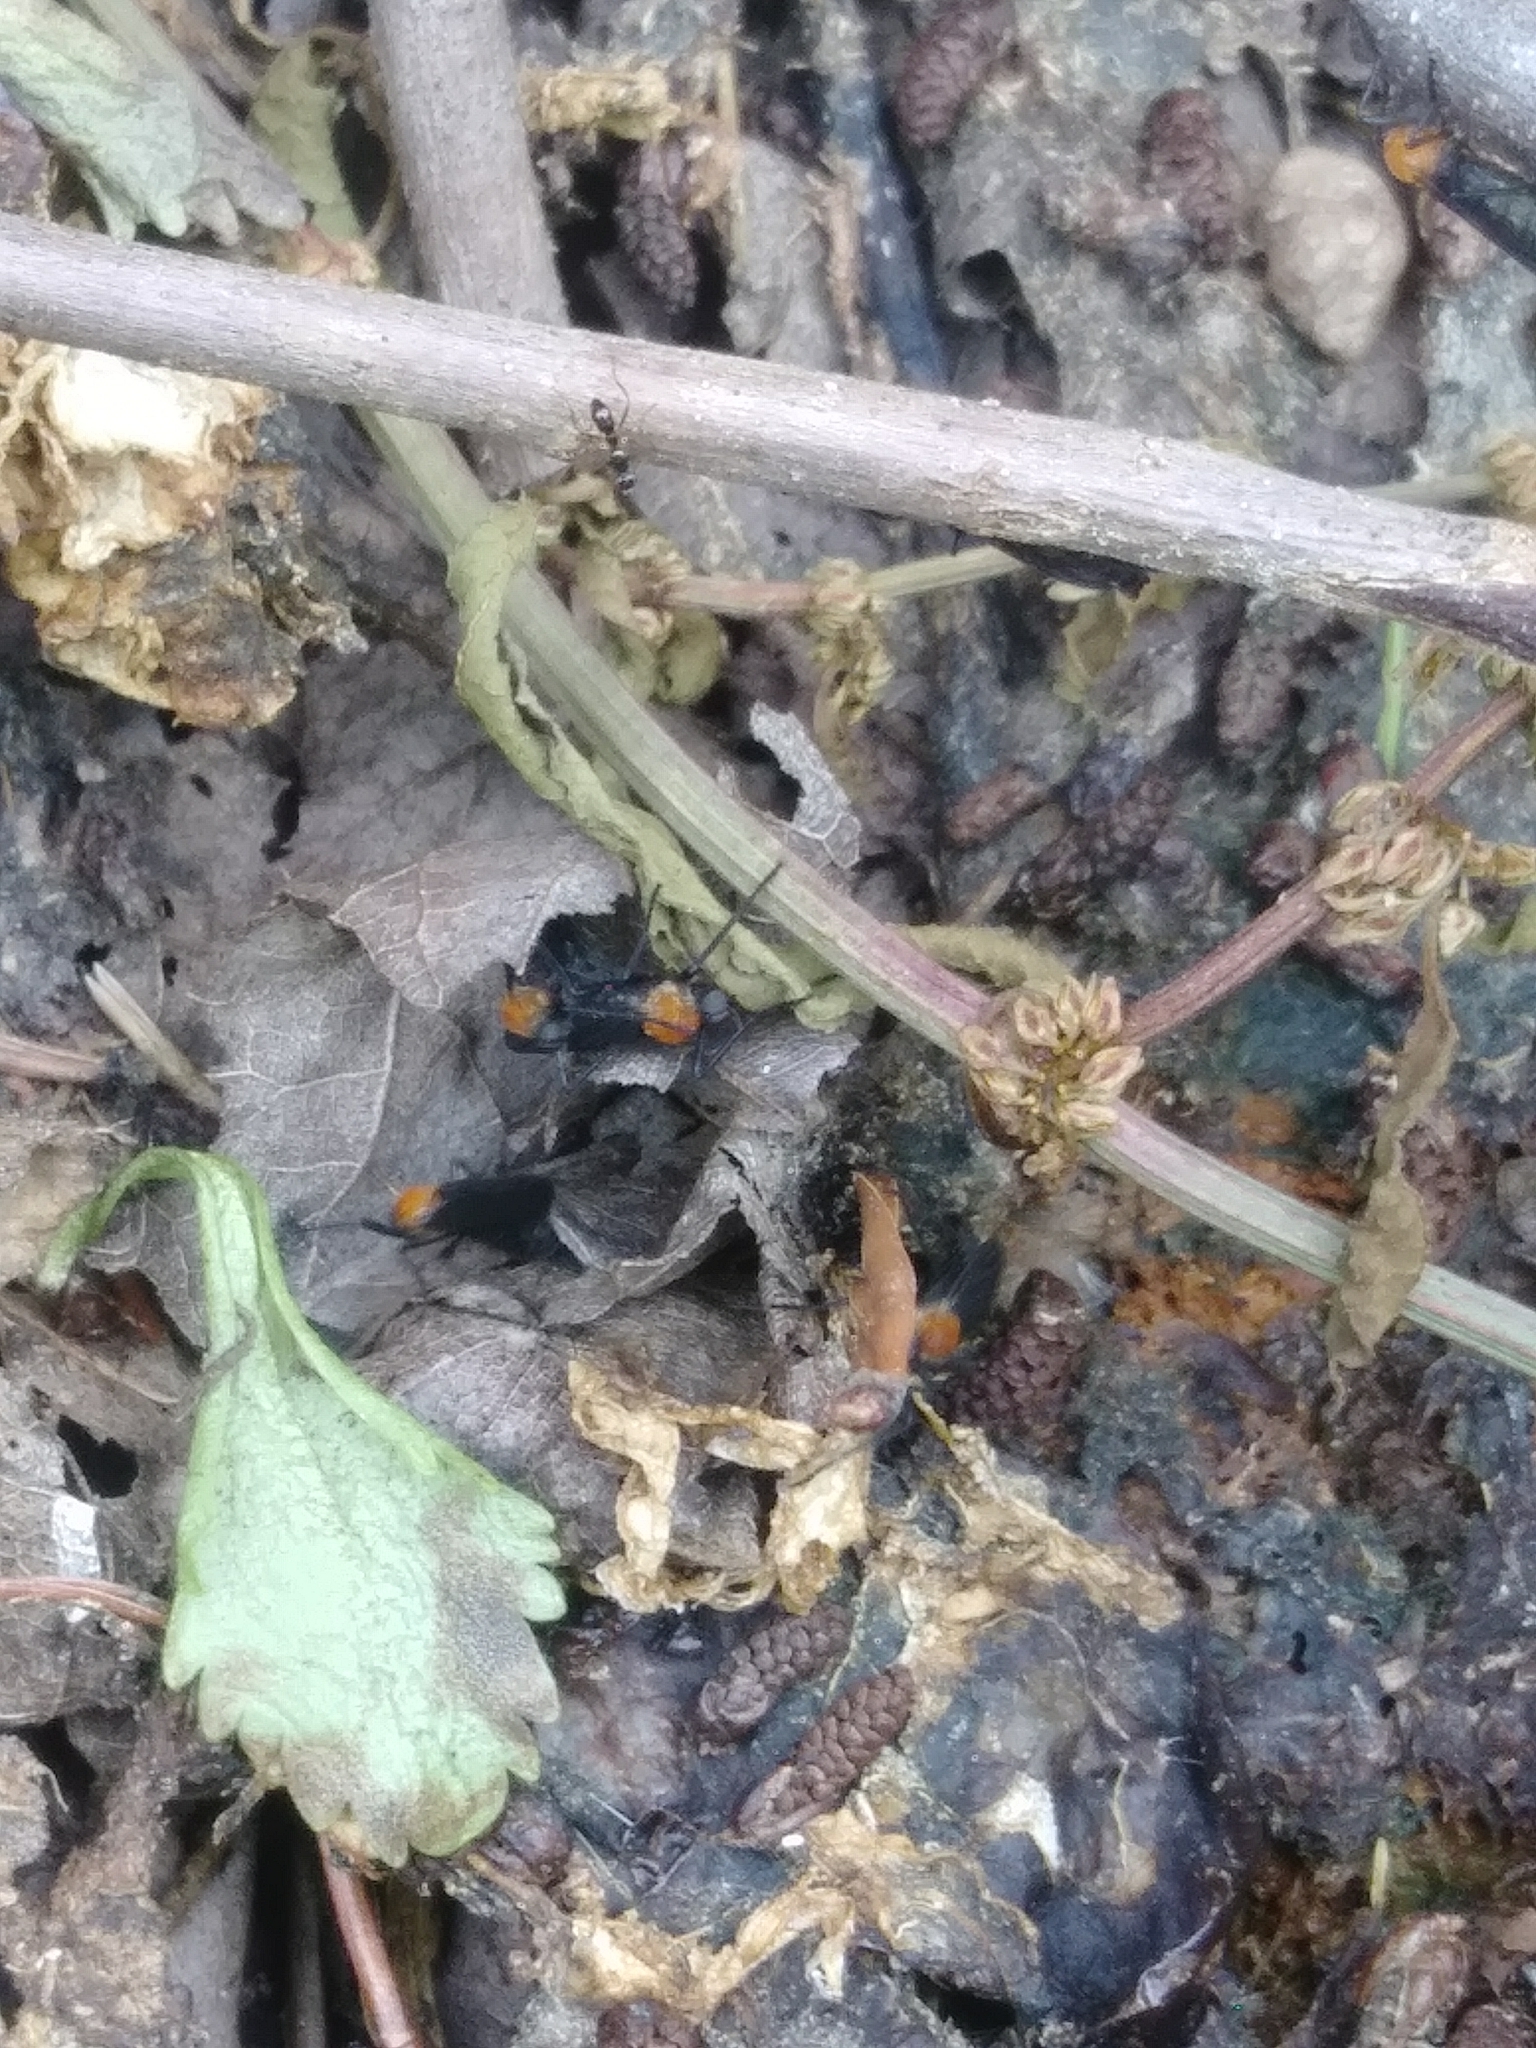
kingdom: Animalia
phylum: Arthropoda
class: Insecta
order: Diptera
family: Bibionidae
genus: Plecia
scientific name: Plecia americana
